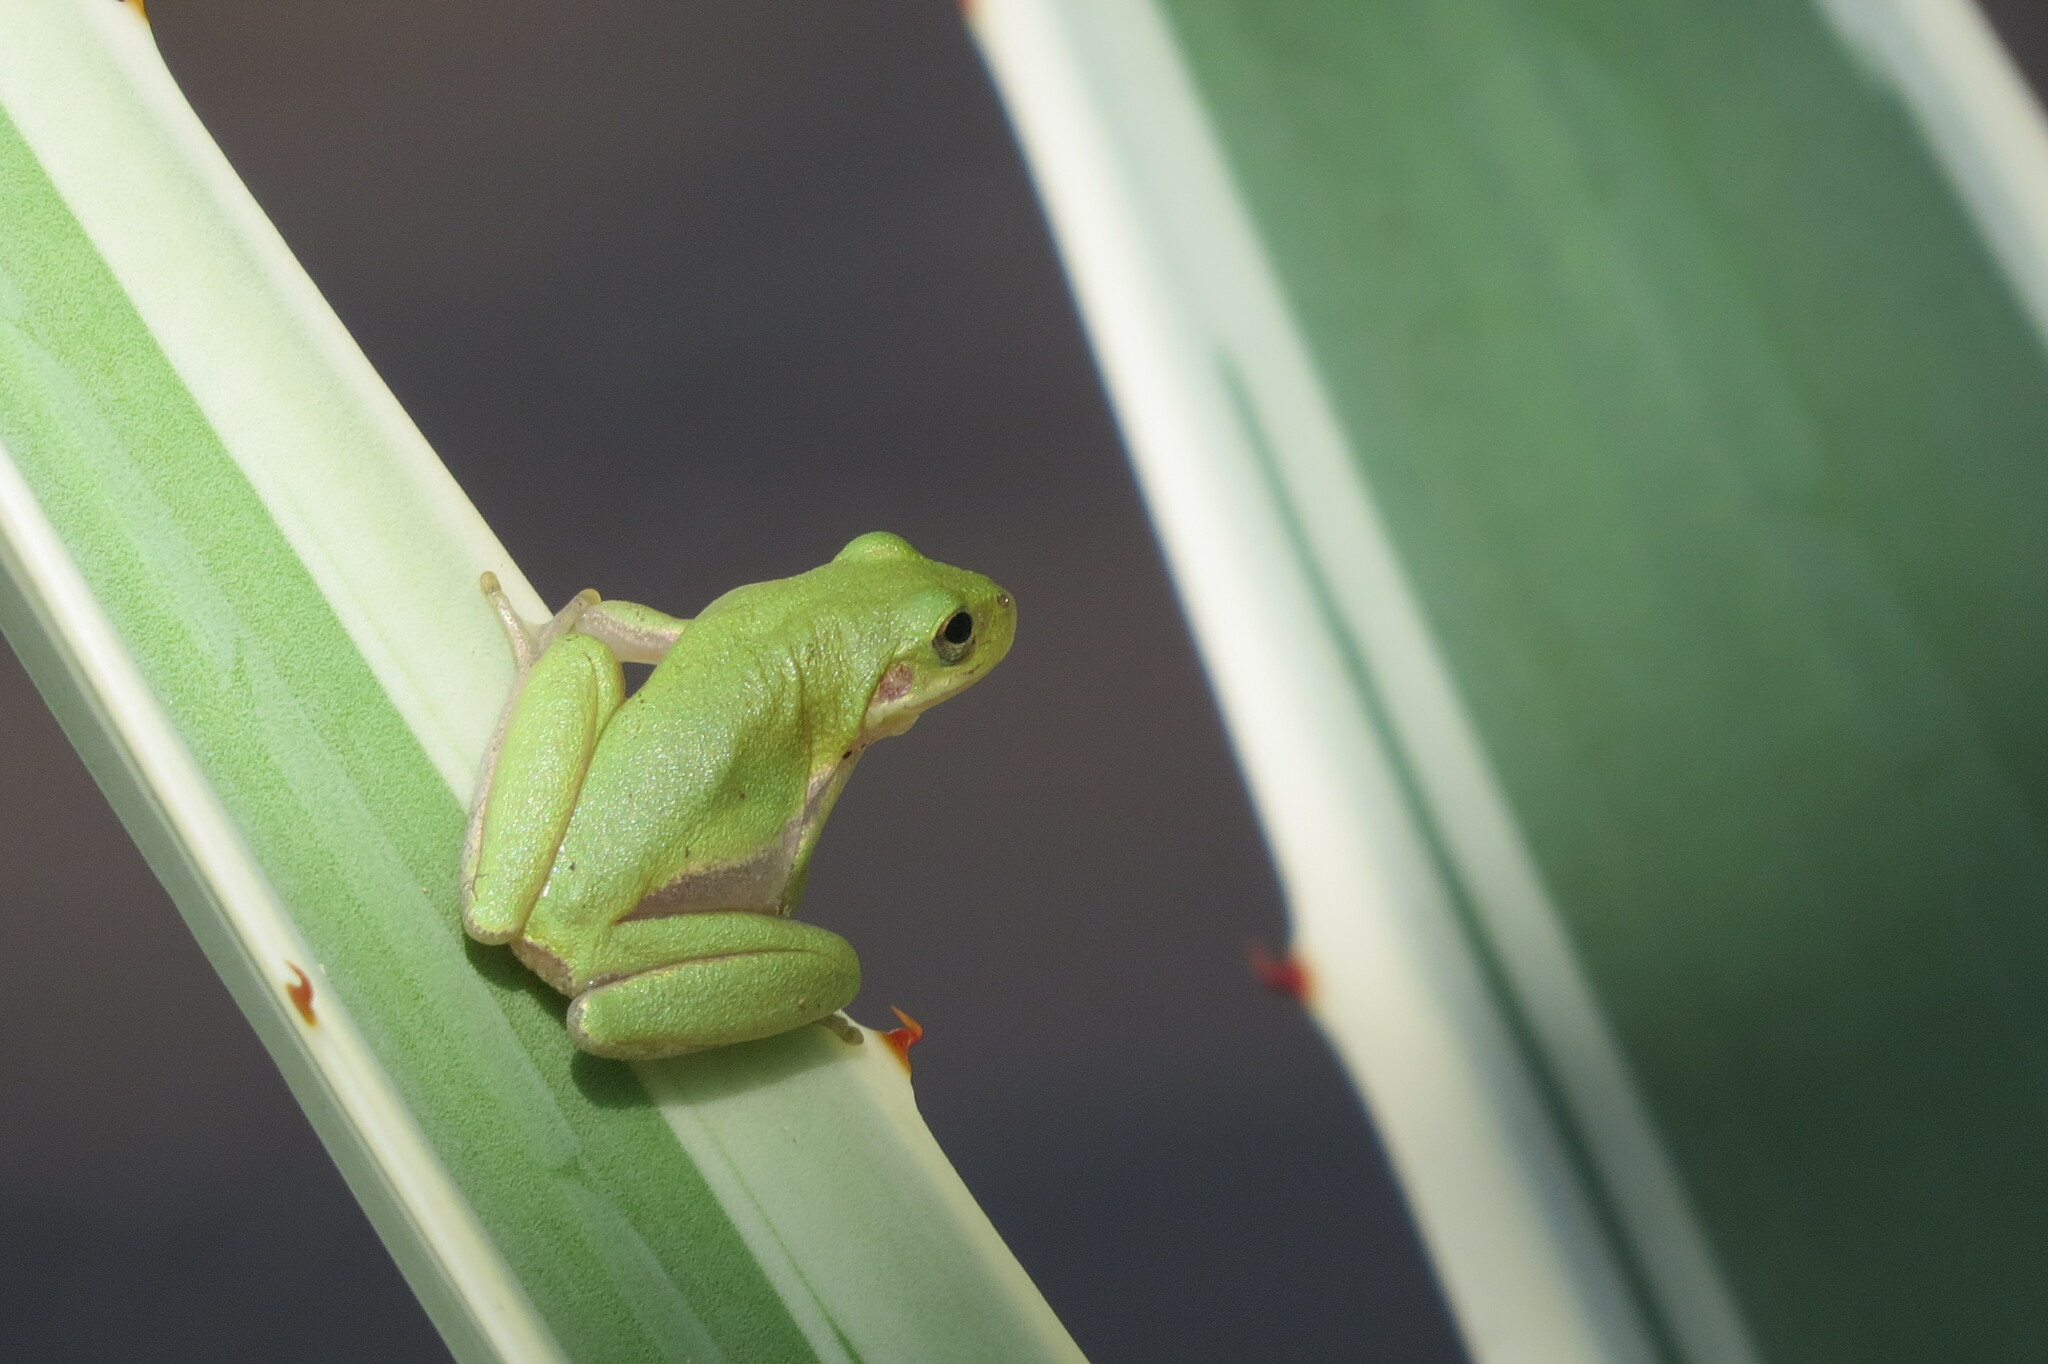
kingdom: Animalia
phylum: Chordata
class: Amphibia
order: Anura
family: Hylidae
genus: Dryophytes
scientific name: Dryophytes squirellus
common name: Squirrel treefrog
